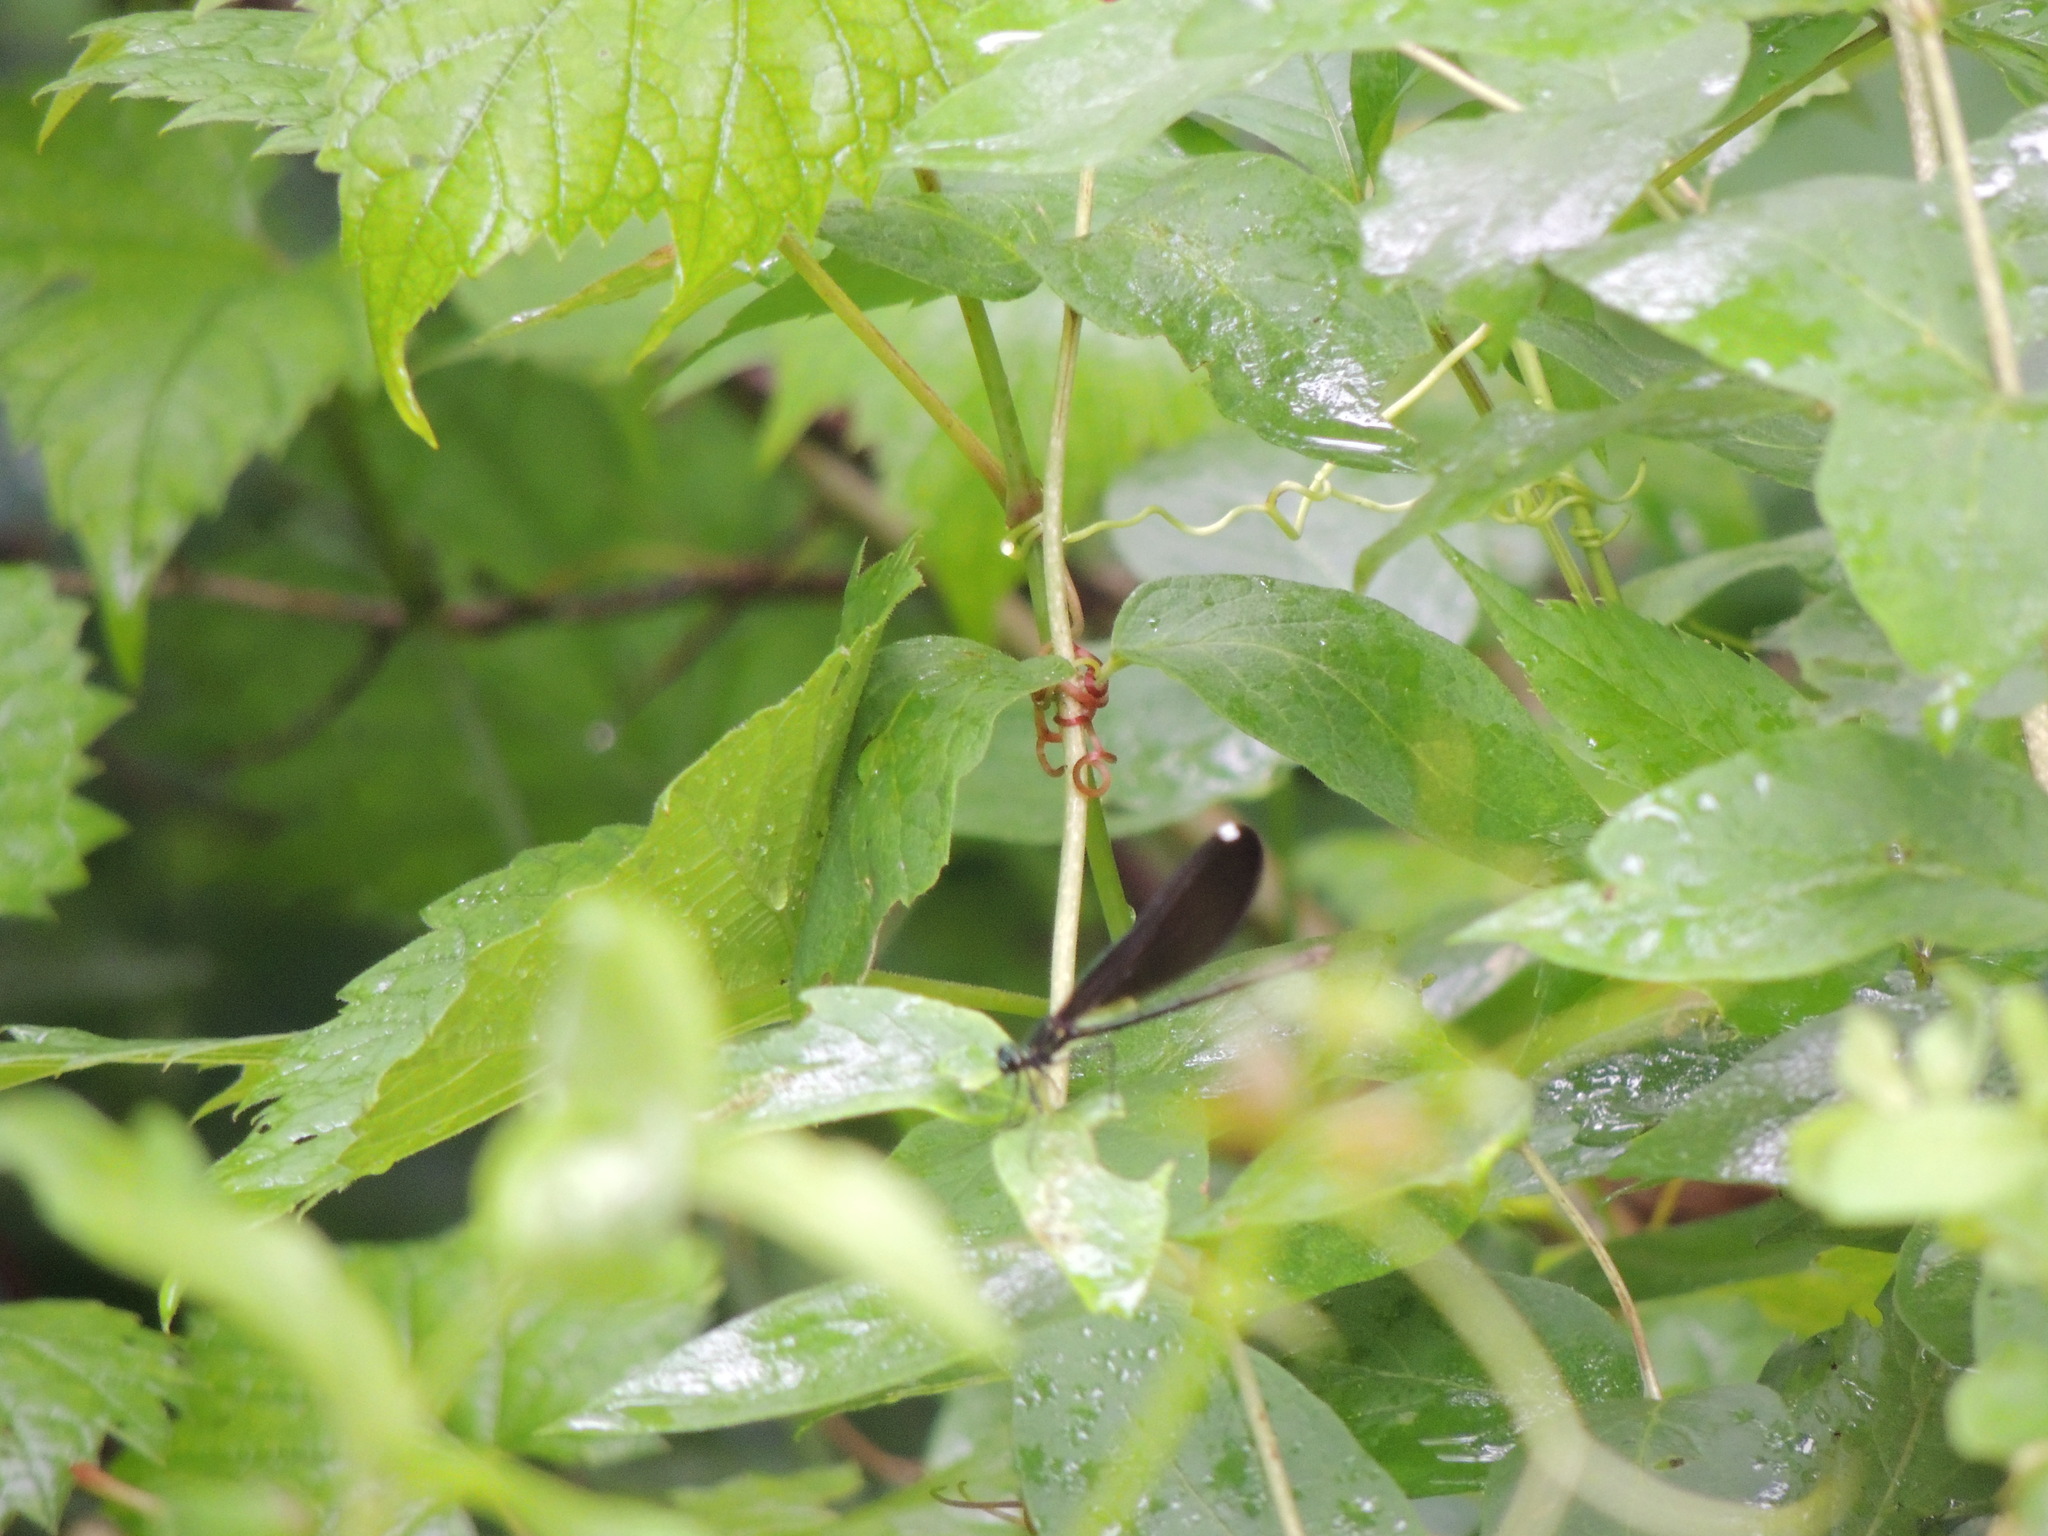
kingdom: Animalia
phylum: Arthropoda
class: Insecta
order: Odonata
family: Calopterygidae
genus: Calopteryx
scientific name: Calopteryx maculata
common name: Ebony jewelwing
